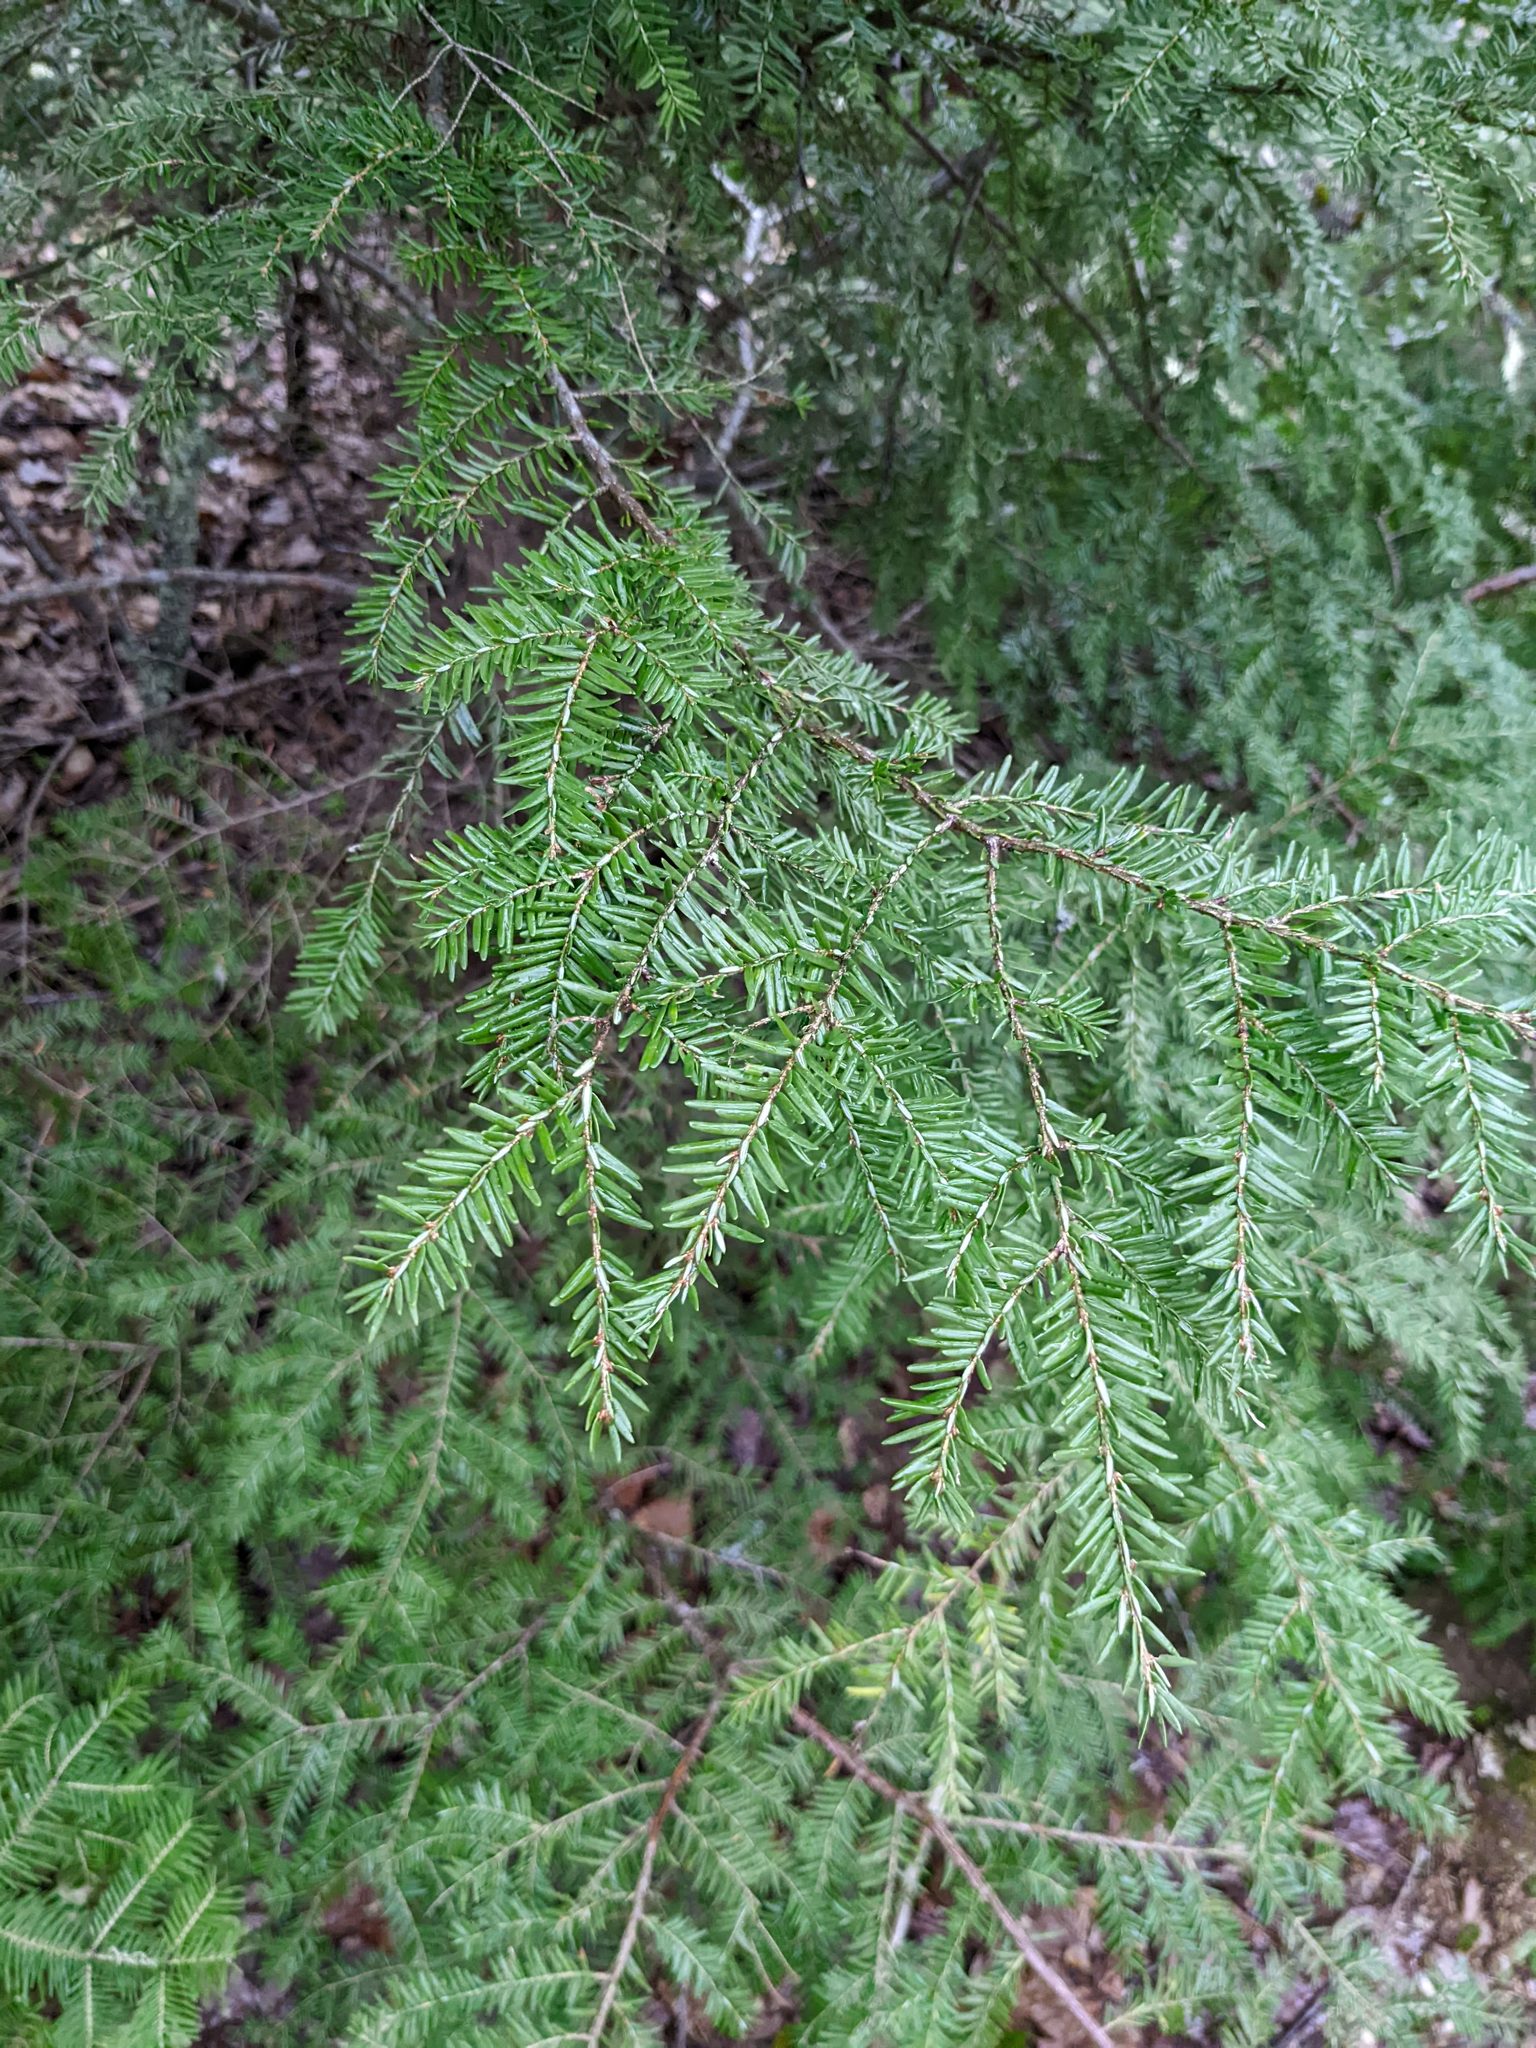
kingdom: Plantae
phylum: Tracheophyta
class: Pinopsida
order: Pinales
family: Pinaceae
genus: Tsuga
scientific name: Tsuga canadensis
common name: Eastern hemlock
